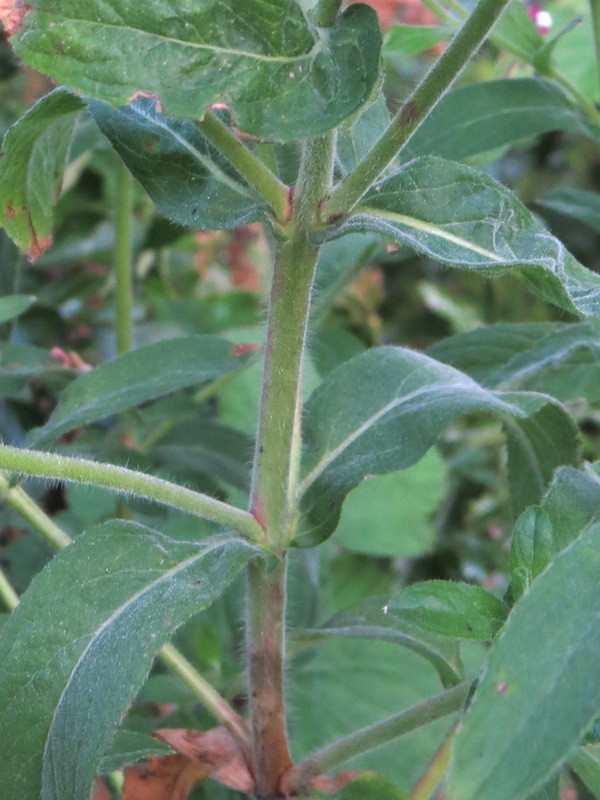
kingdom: Plantae
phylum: Tracheophyta
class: Magnoliopsida
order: Myrtales
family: Onagraceae
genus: Epilobium
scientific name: Epilobium hirsutum
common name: Great willowherb
